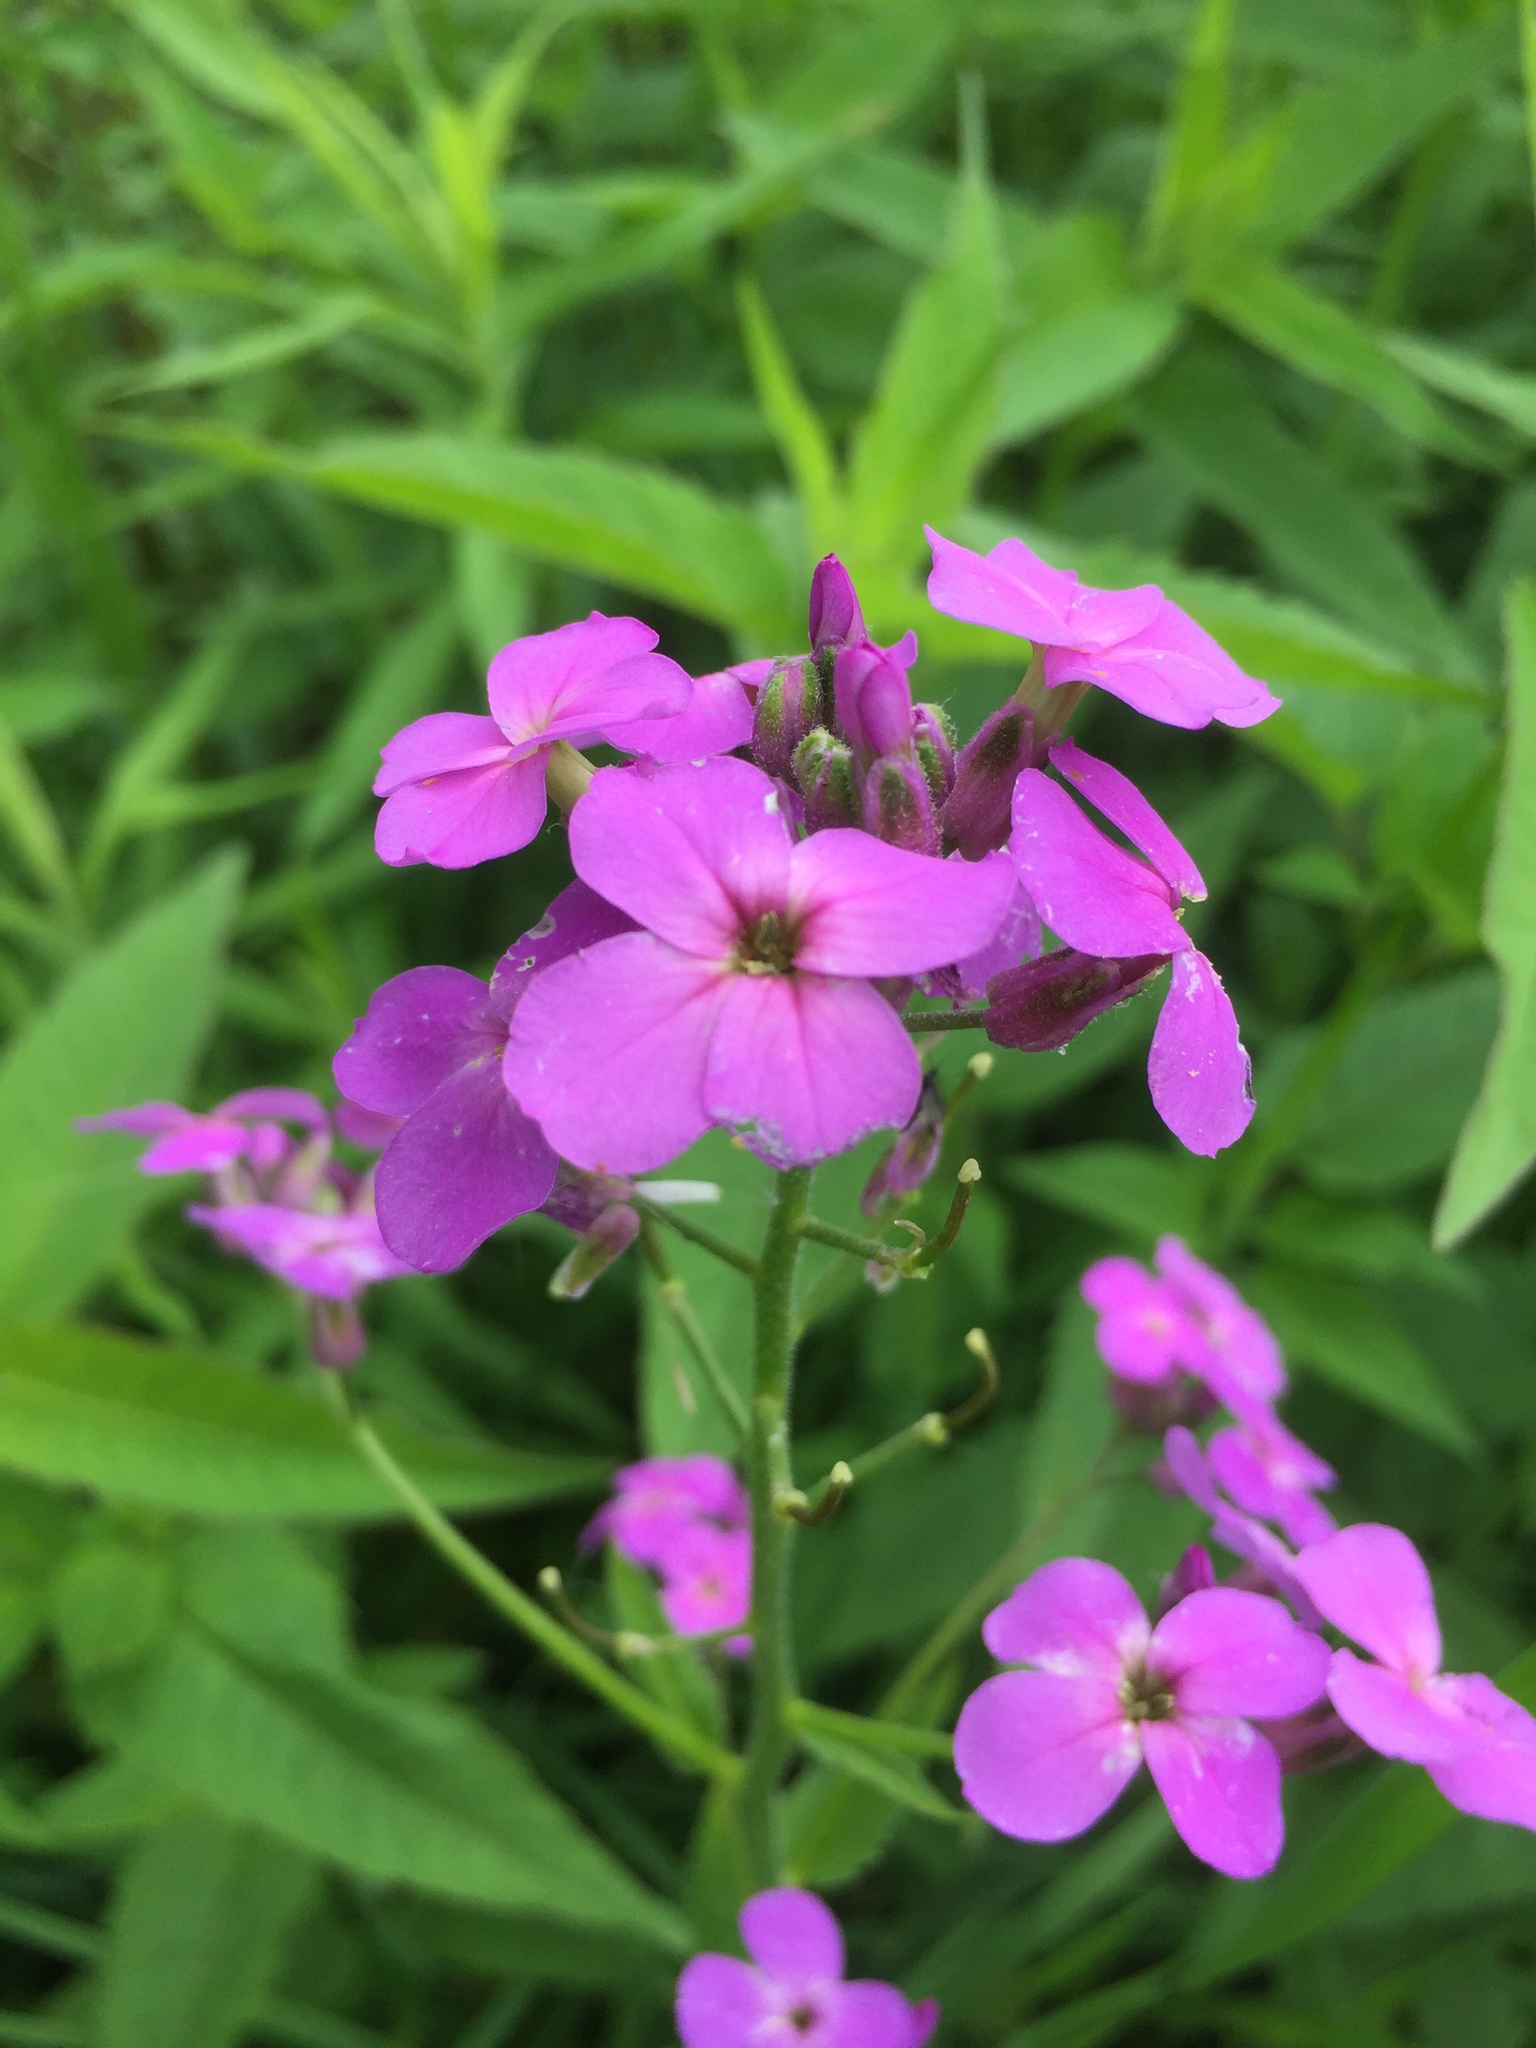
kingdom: Plantae
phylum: Tracheophyta
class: Magnoliopsida
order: Brassicales
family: Brassicaceae
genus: Hesperis
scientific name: Hesperis matronalis
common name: Dame's-violet
